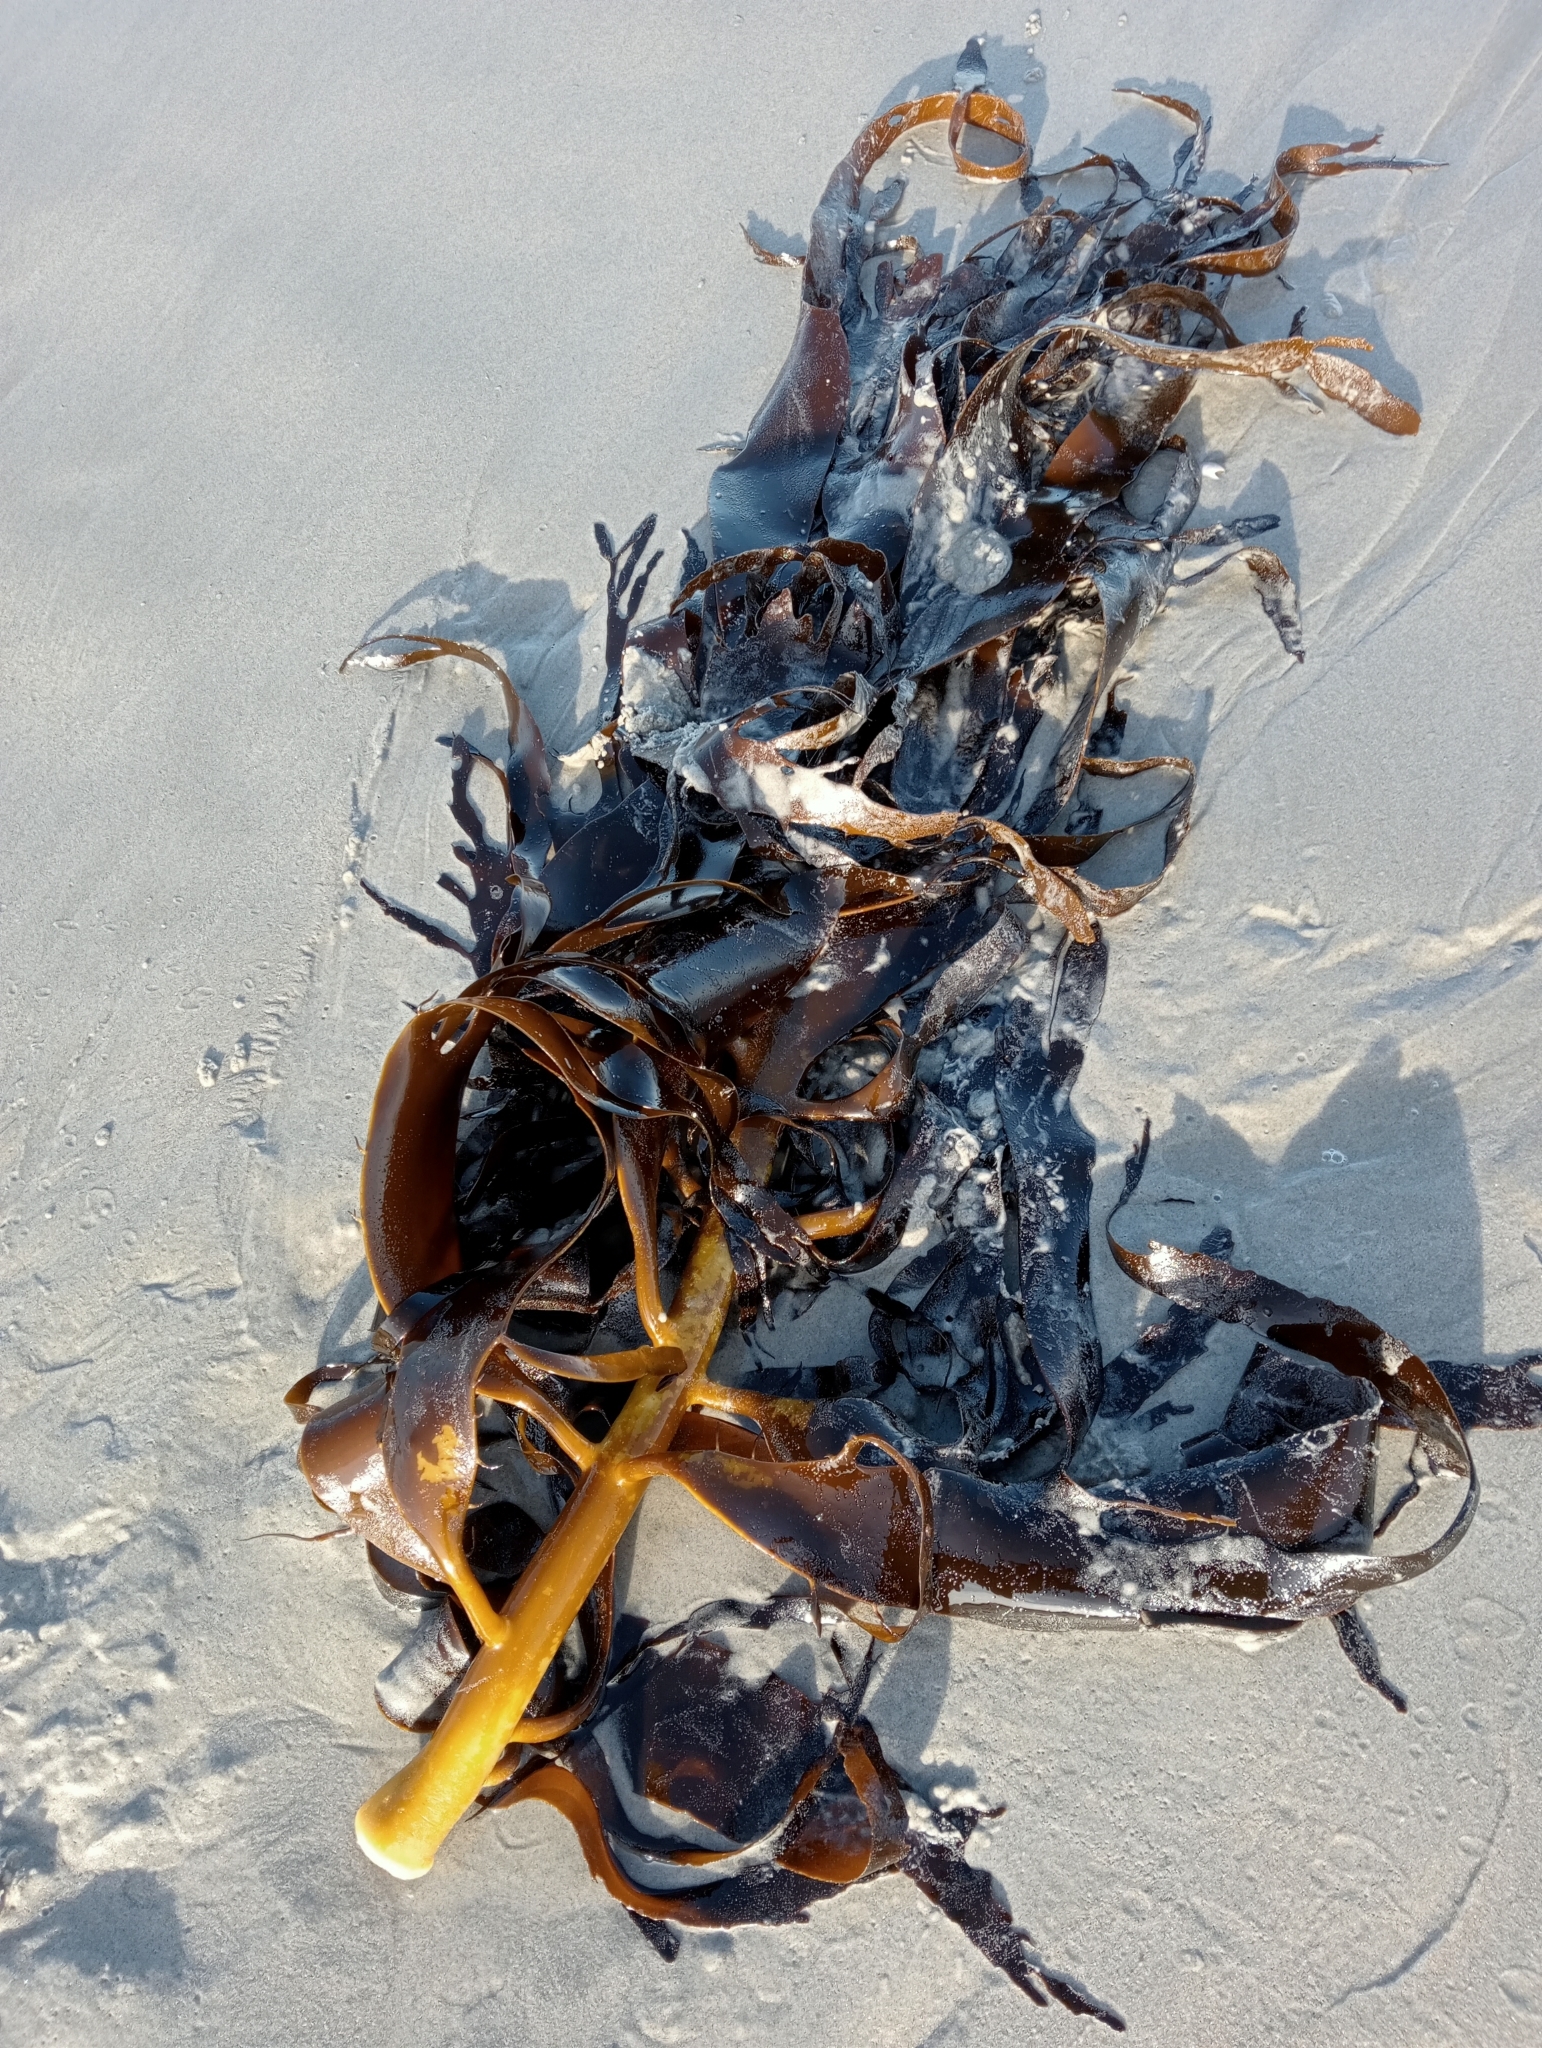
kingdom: Chromista
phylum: Ochrophyta
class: Phaeophyceae
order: Fucales
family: Durvillaeaceae
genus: Durvillaea
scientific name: Durvillaea willana
